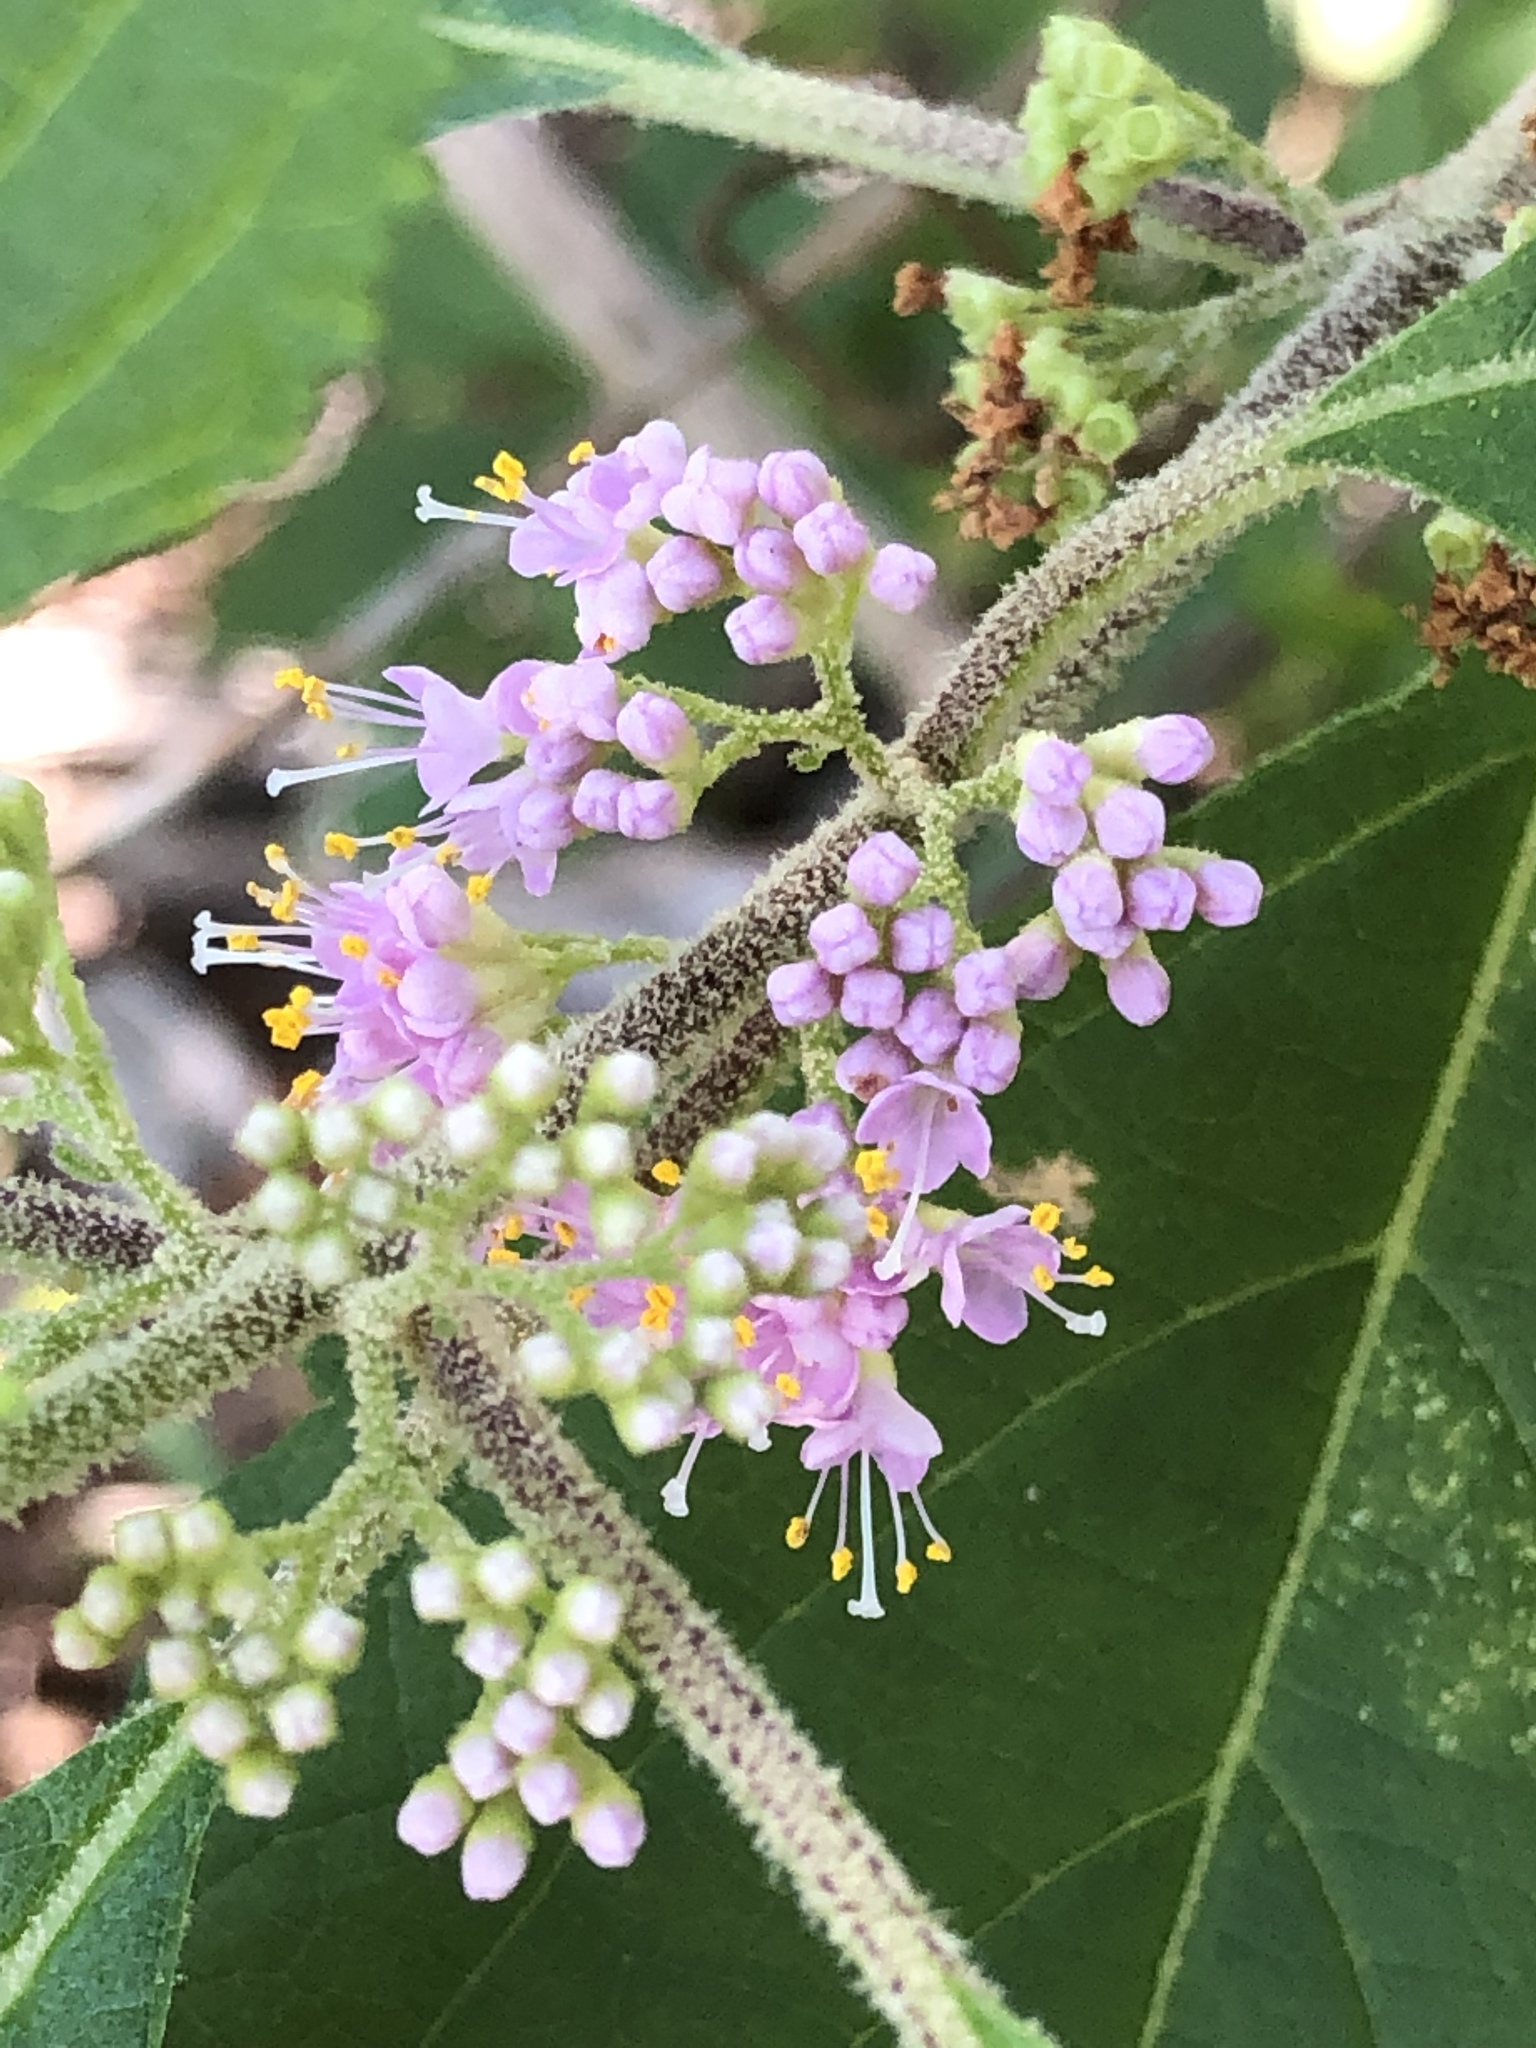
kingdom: Plantae
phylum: Tracheophyta
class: Magnoliopsida
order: Lamiales
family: Lamiaceae
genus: Callicarpa
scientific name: Callicarpa americana
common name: American beautyberry
